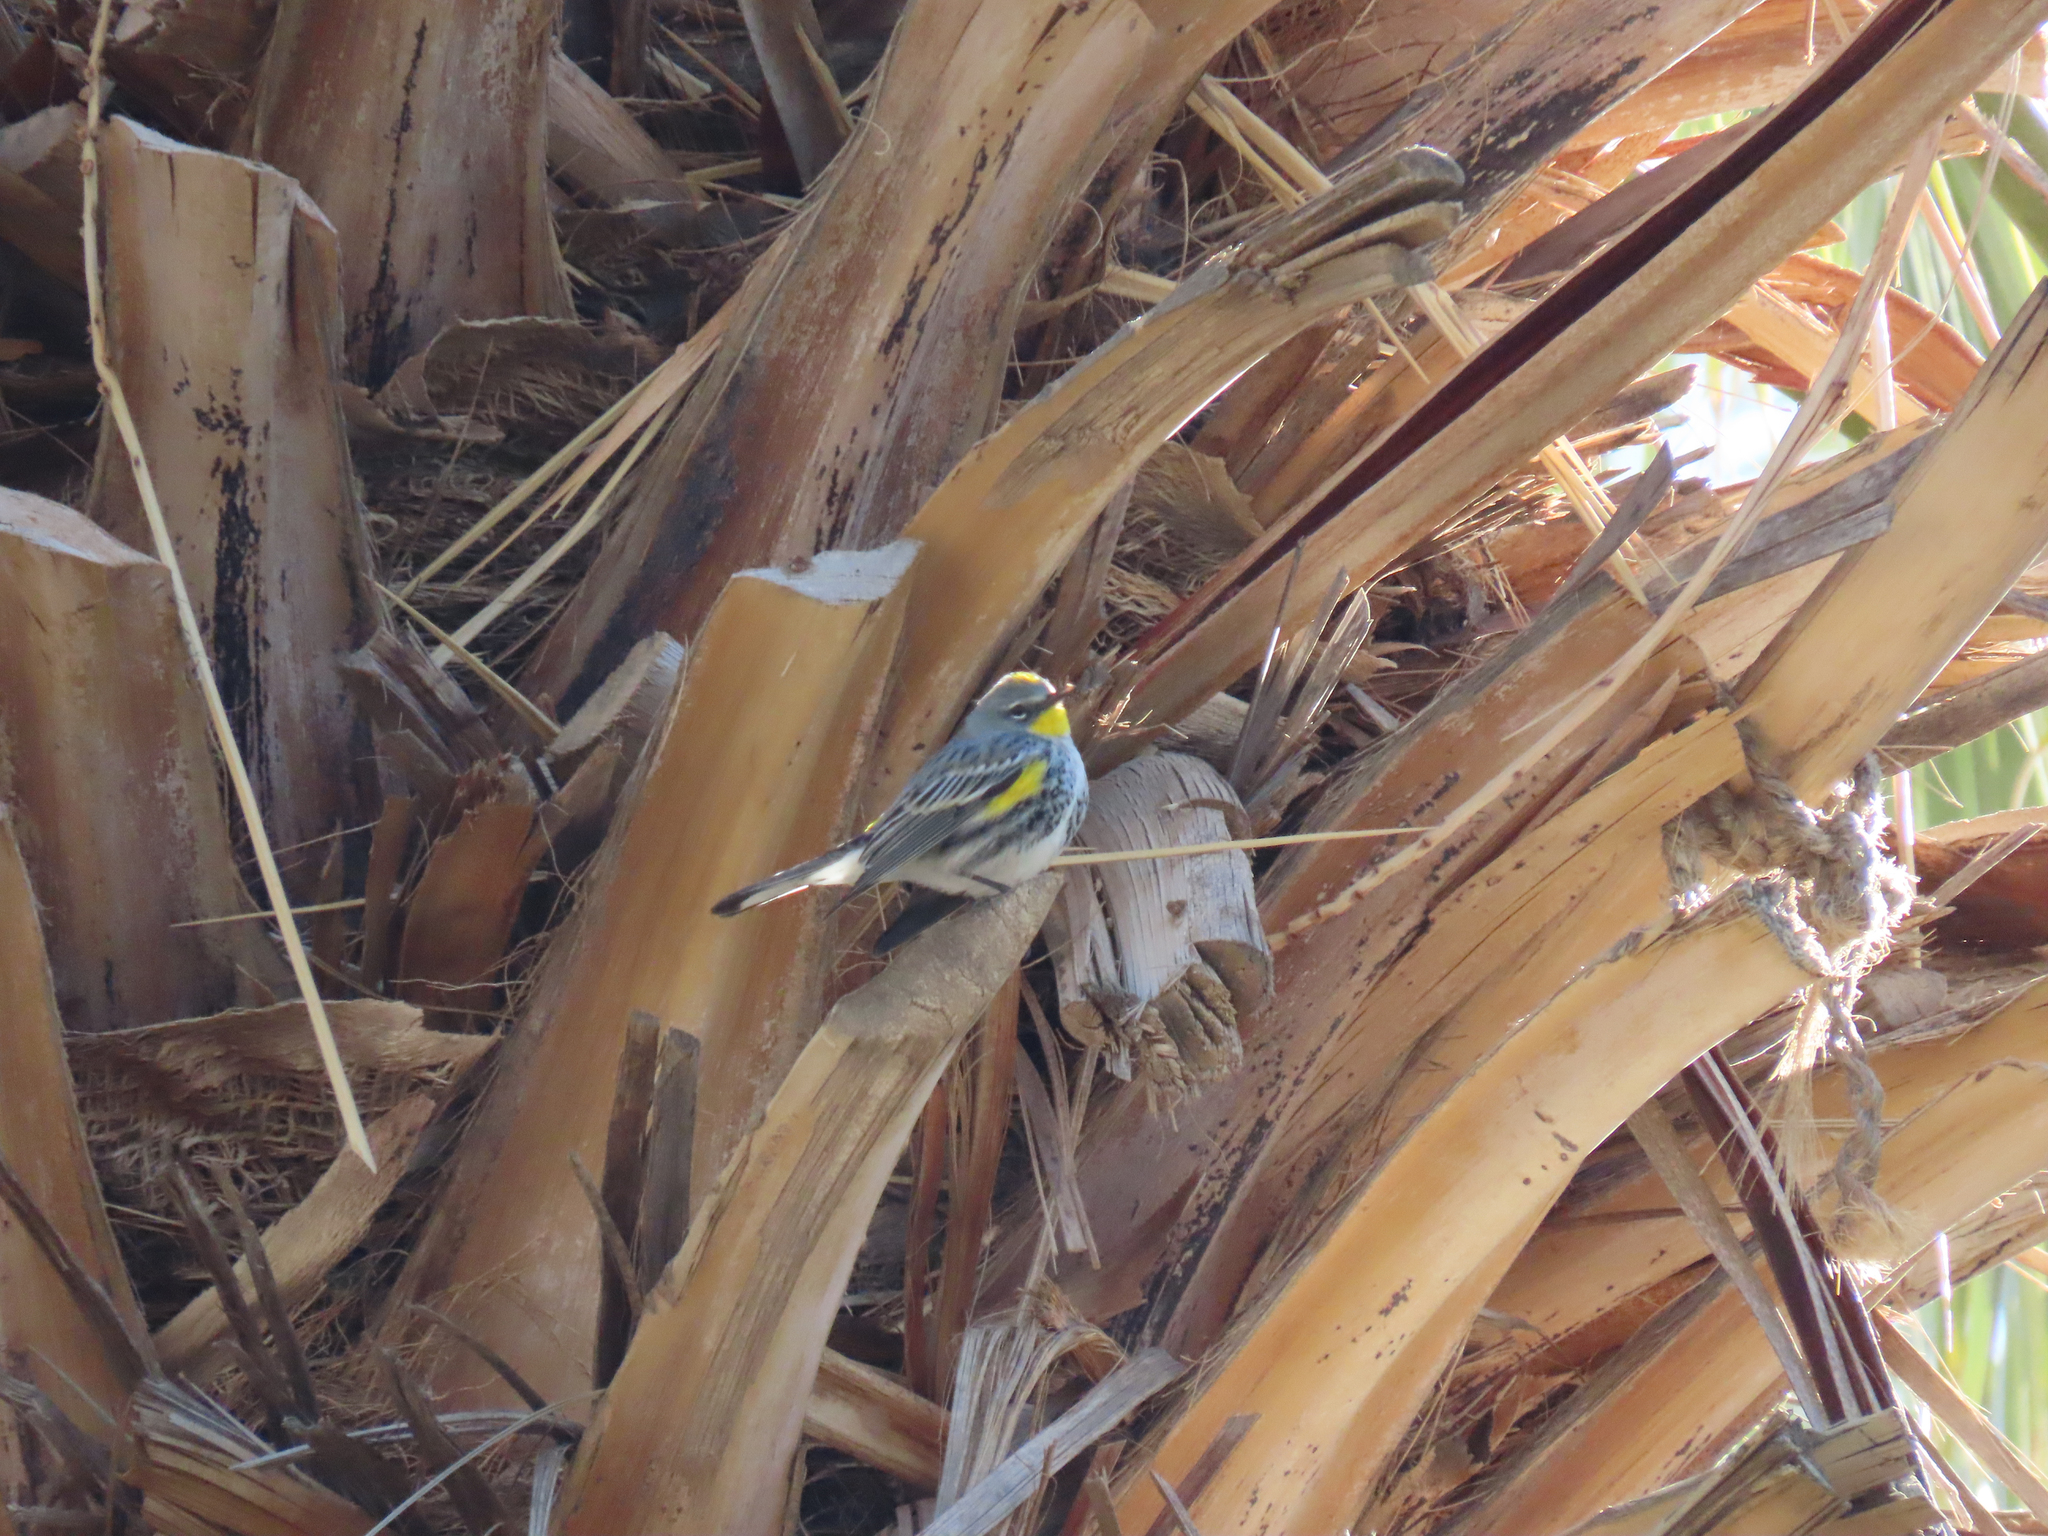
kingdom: Animalia
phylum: Chordata
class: Aves
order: Passeriformes
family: Parulidae
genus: Setophaga
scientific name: Setophaga auduboni
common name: Audubon's warbler
